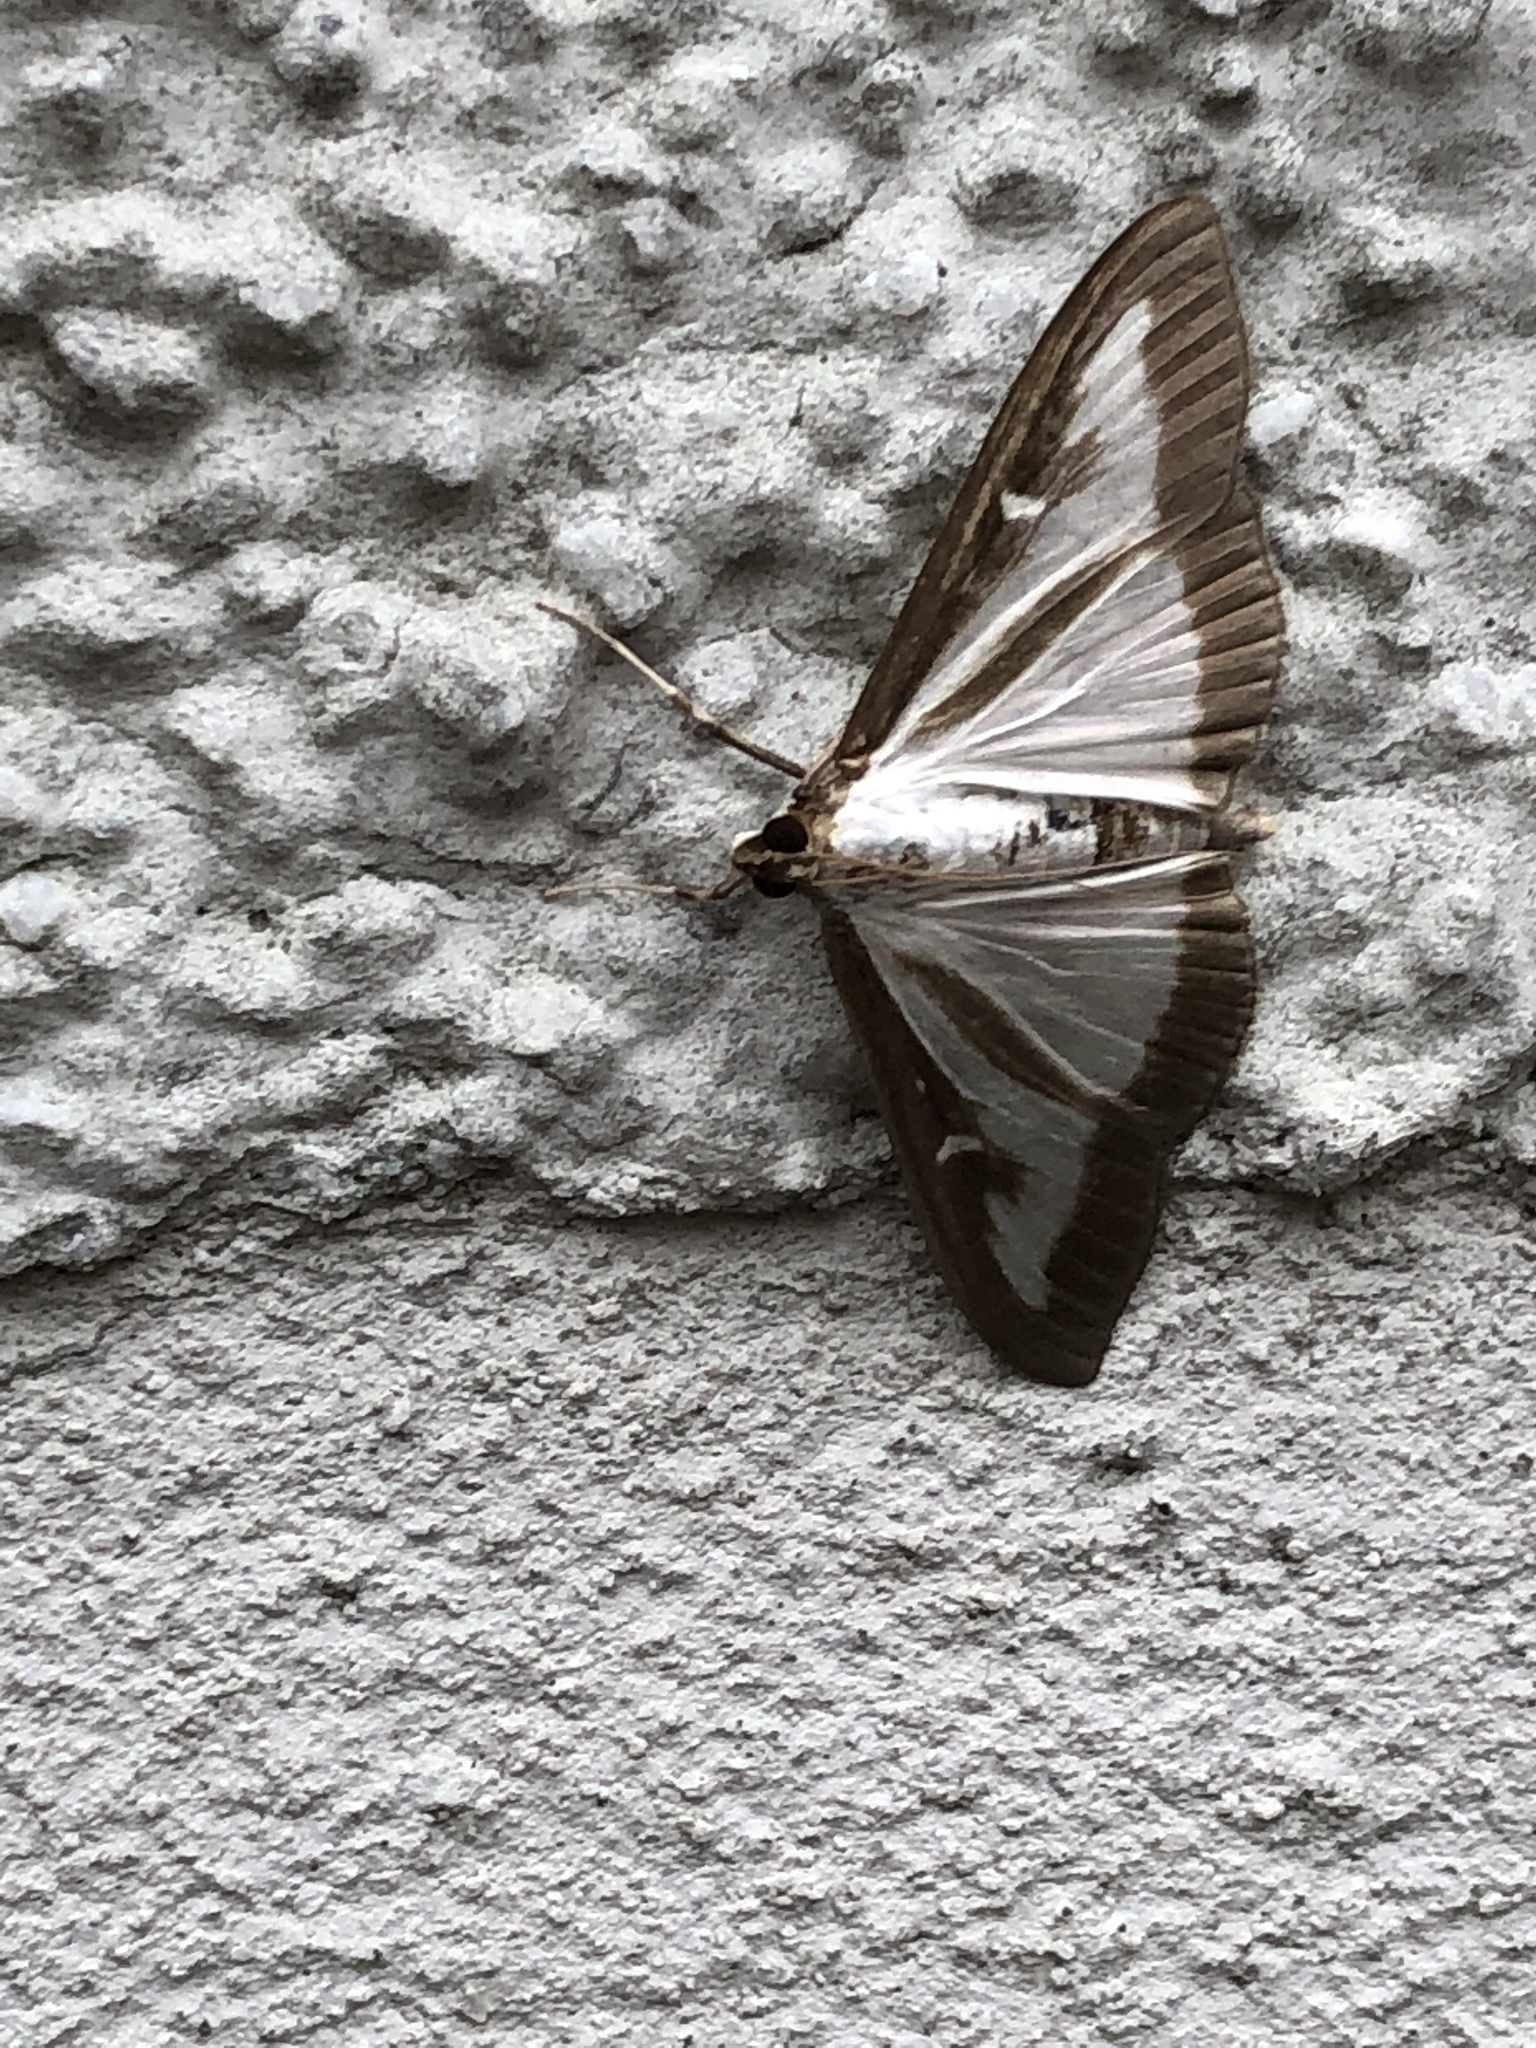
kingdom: Animalia
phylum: Arthropoda
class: Insecta
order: Lepidoptera
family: Crambidae
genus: Cydalima
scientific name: Cydalima perspectalis
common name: Box tree moth
